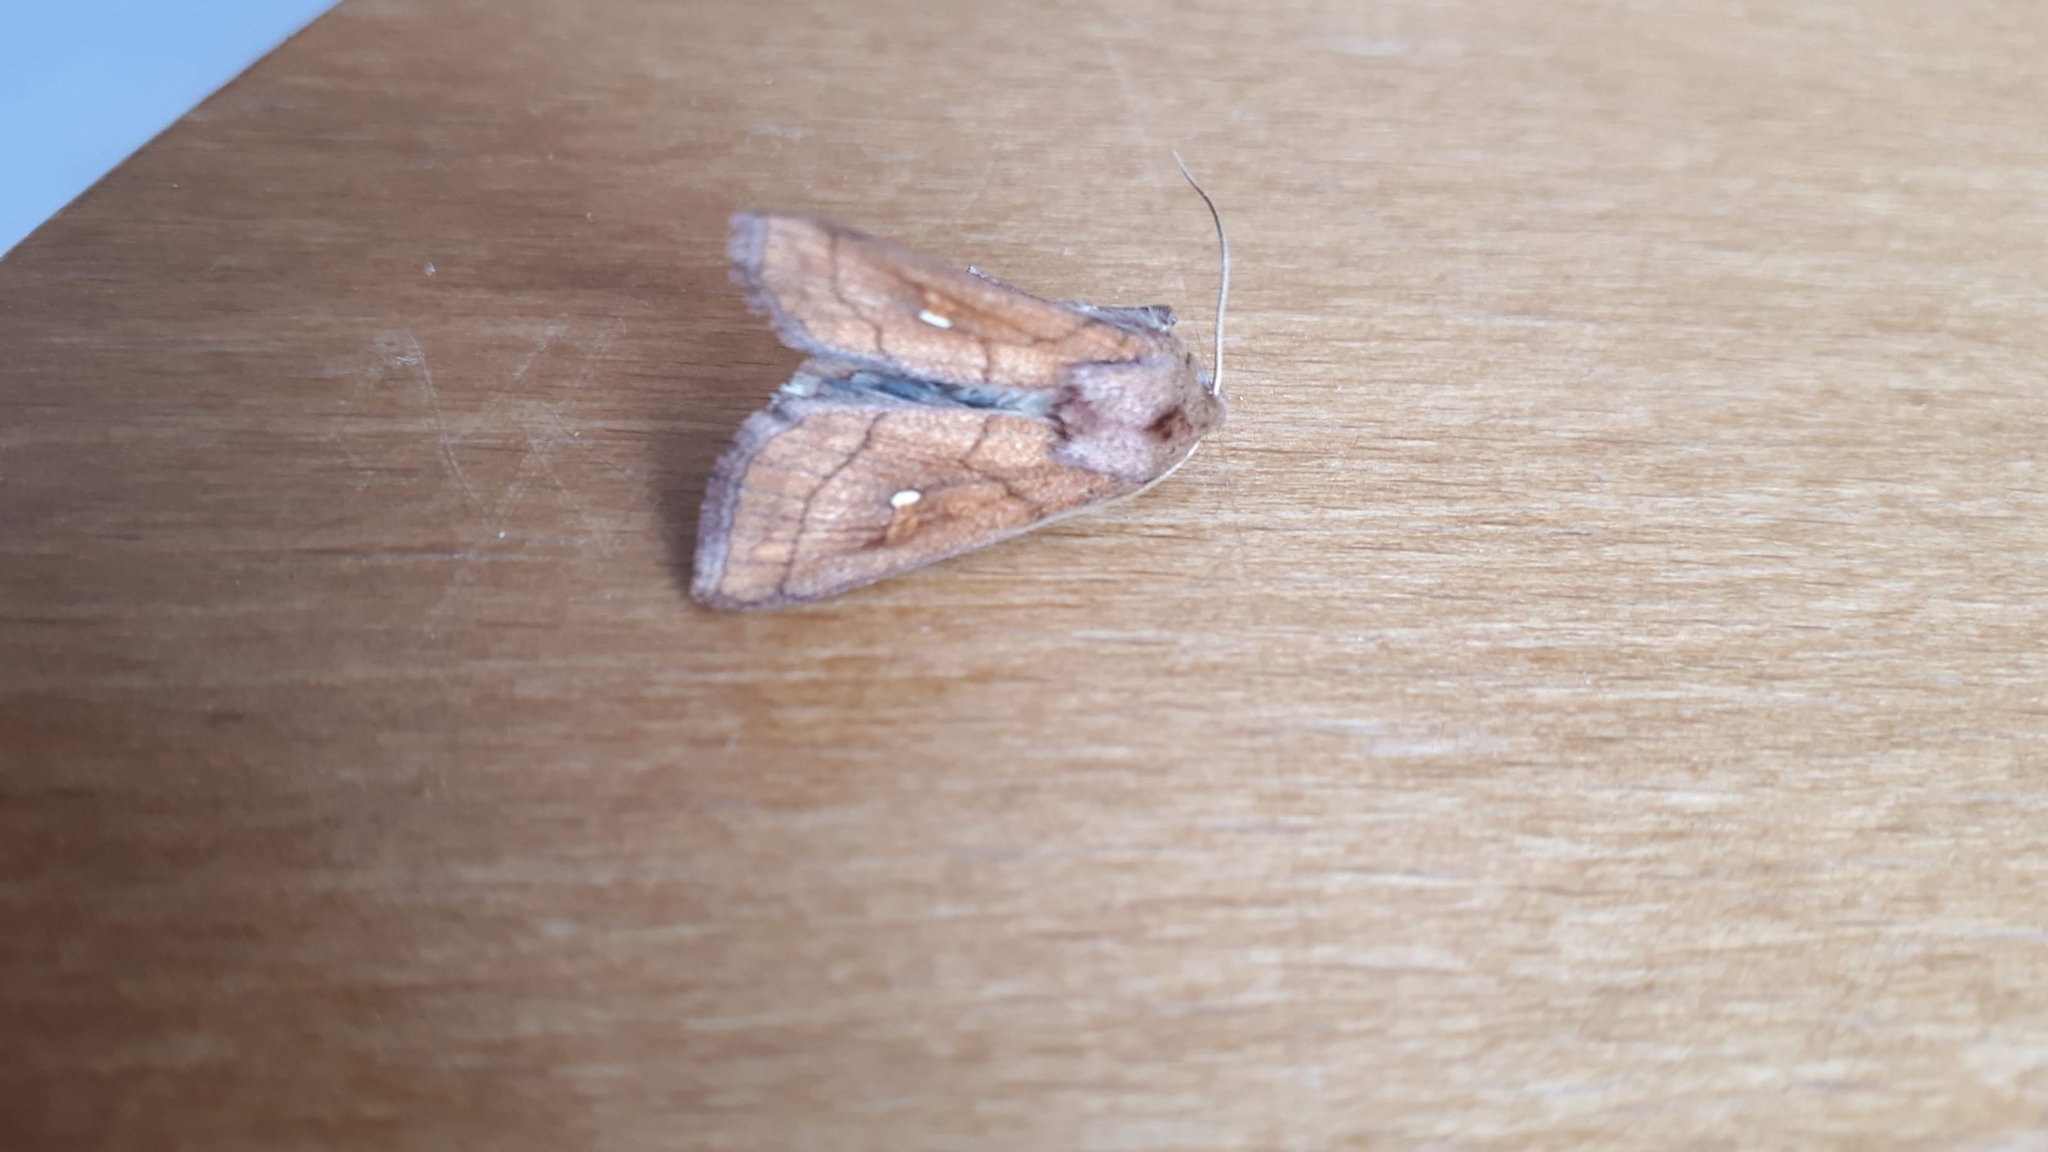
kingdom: Animalia
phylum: Arthropoda
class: Insecta
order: Lepidoptera
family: Noctuidae
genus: Mythimna
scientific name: Mythimna conigera
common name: Brown-line bright-eye
